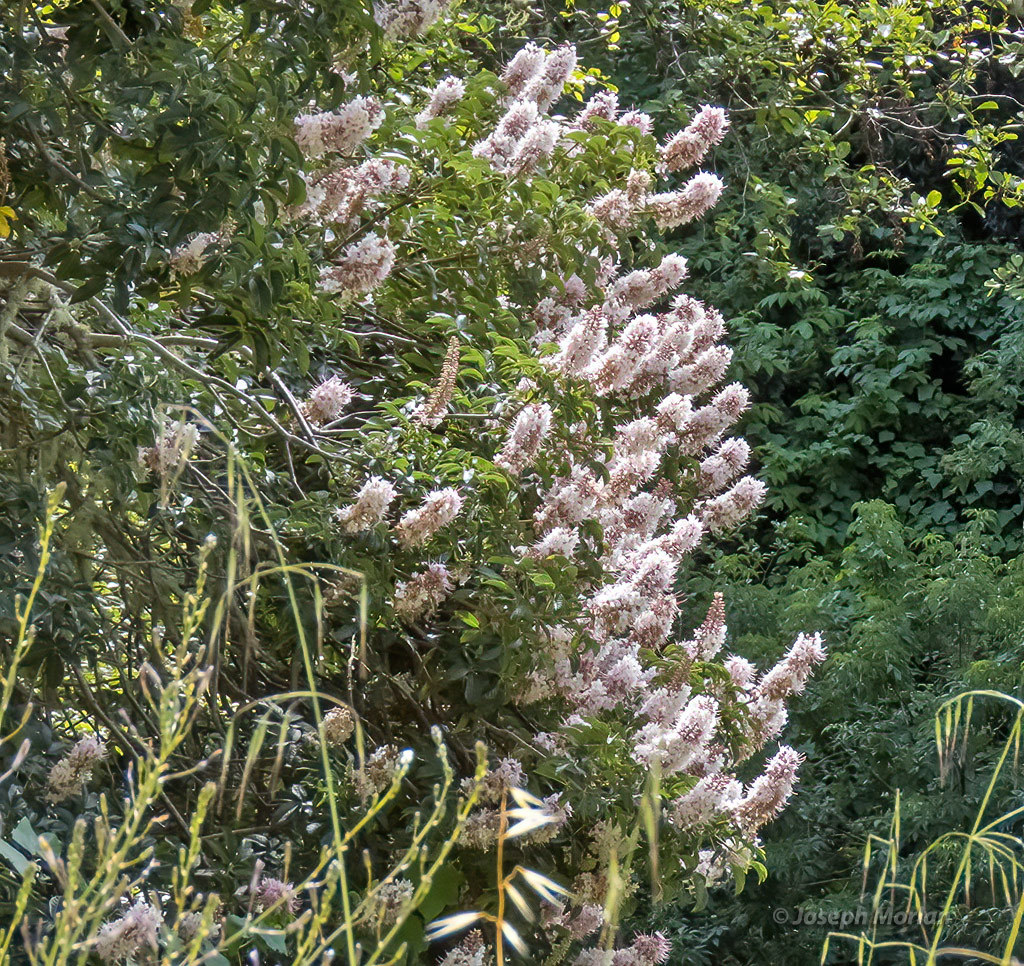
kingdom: Plantae
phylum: Tracheophyta
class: Magnoliopsida
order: Sapindales
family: Sapindaceae
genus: Aesculus
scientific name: Aesculus californica
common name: California buckeye
